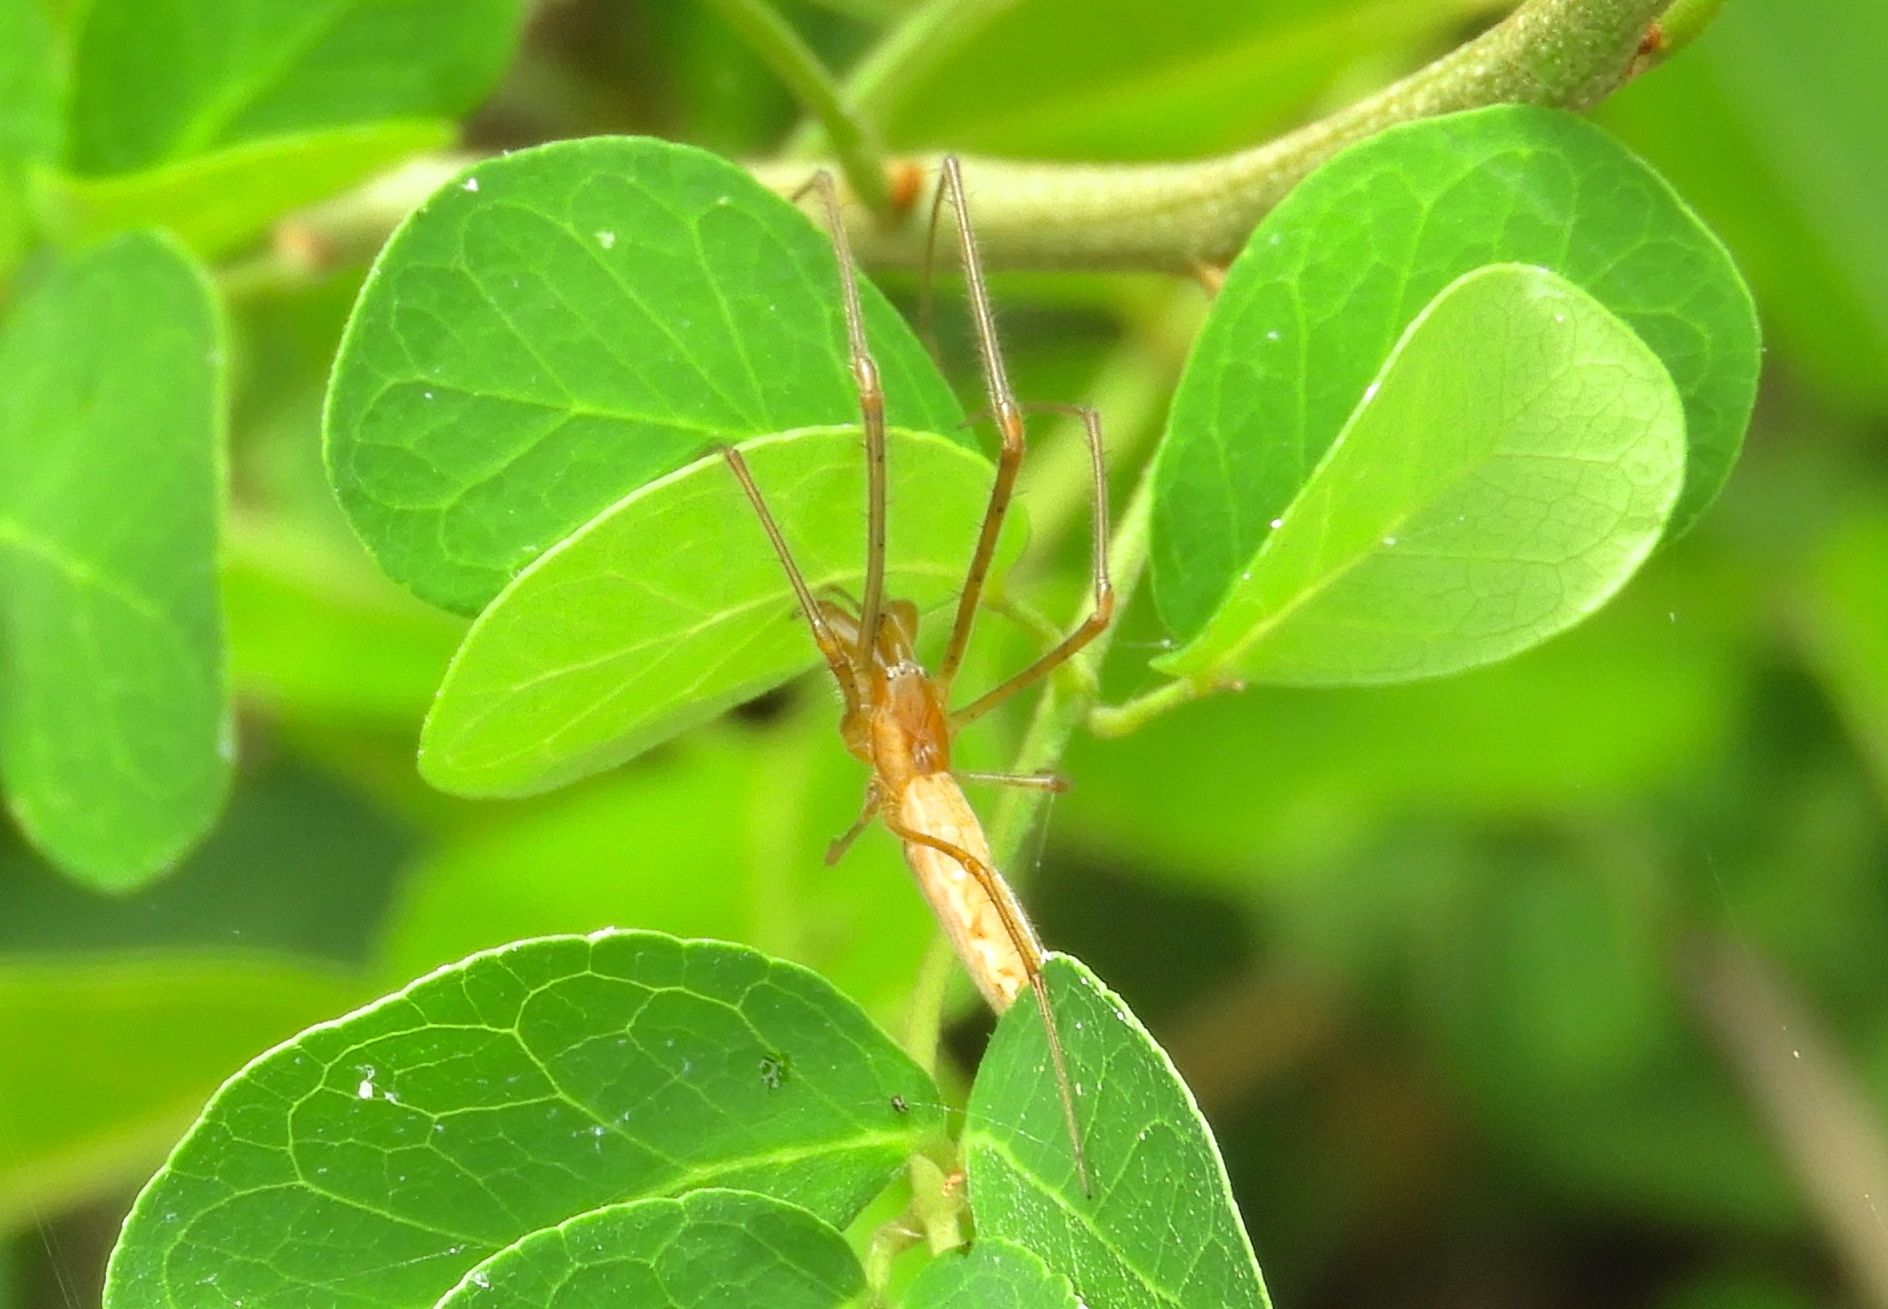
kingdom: Animalia
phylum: Arthropoda
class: Arachnida
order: Araneae
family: Tetragnathidae
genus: Tetragnatha
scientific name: Tetragnatha
